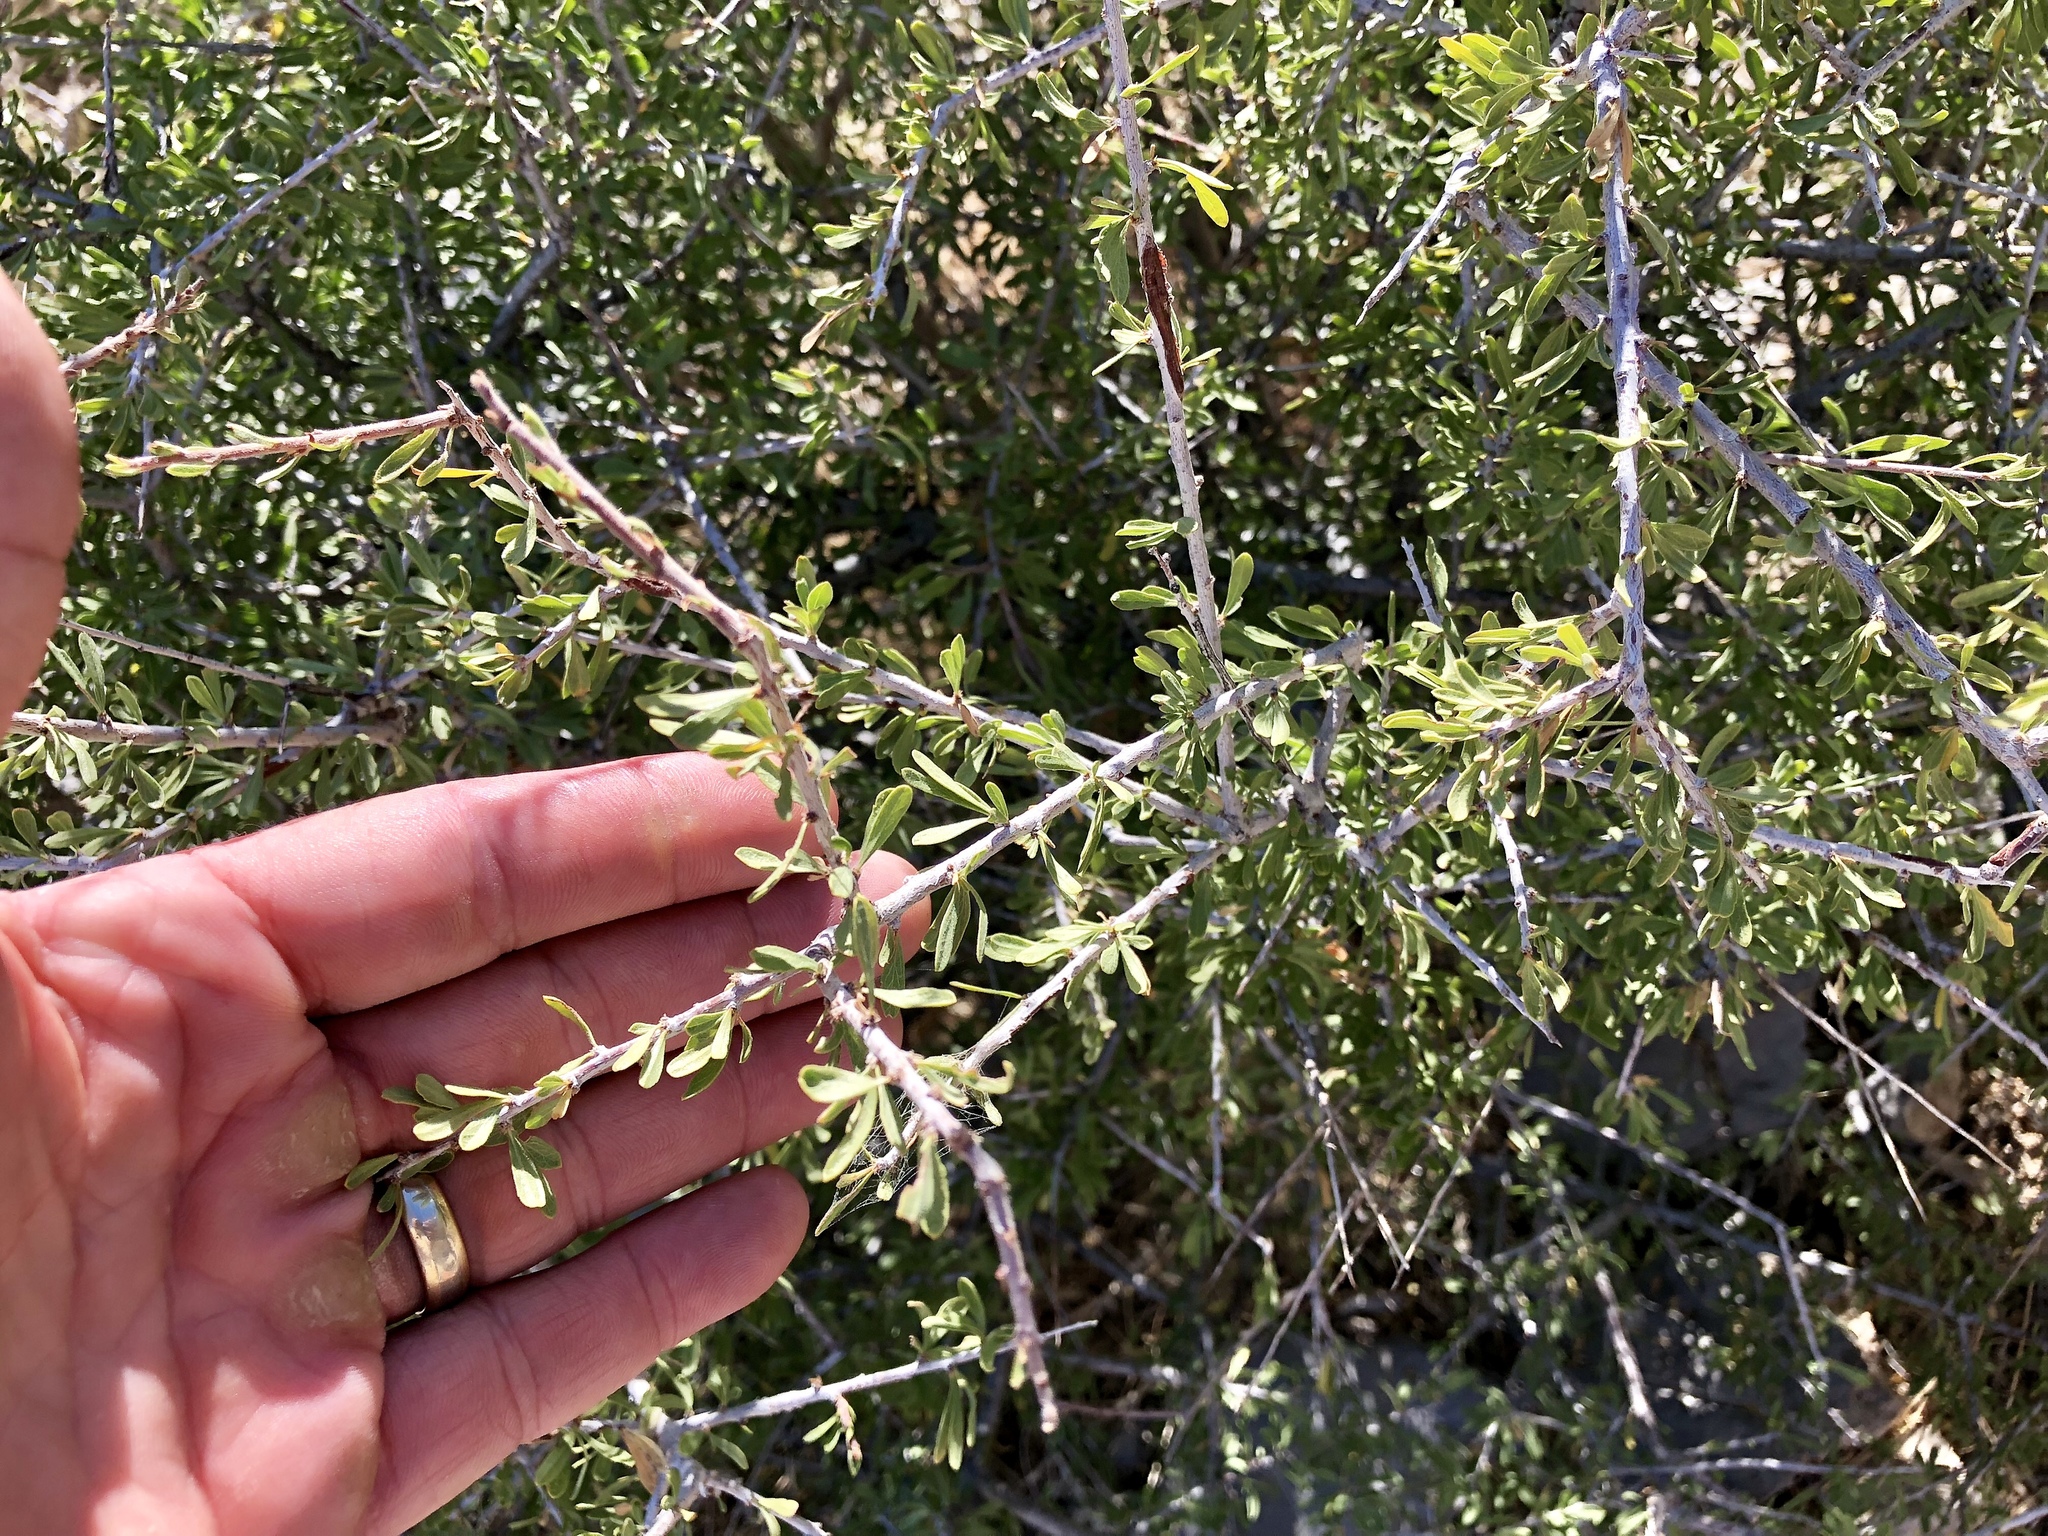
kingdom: Plantae
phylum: Tracheophyta
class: Magnoliopsida
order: Rosales
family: Rosaceae
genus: Prunus
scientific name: Prunus fasciculata
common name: Desert almond
